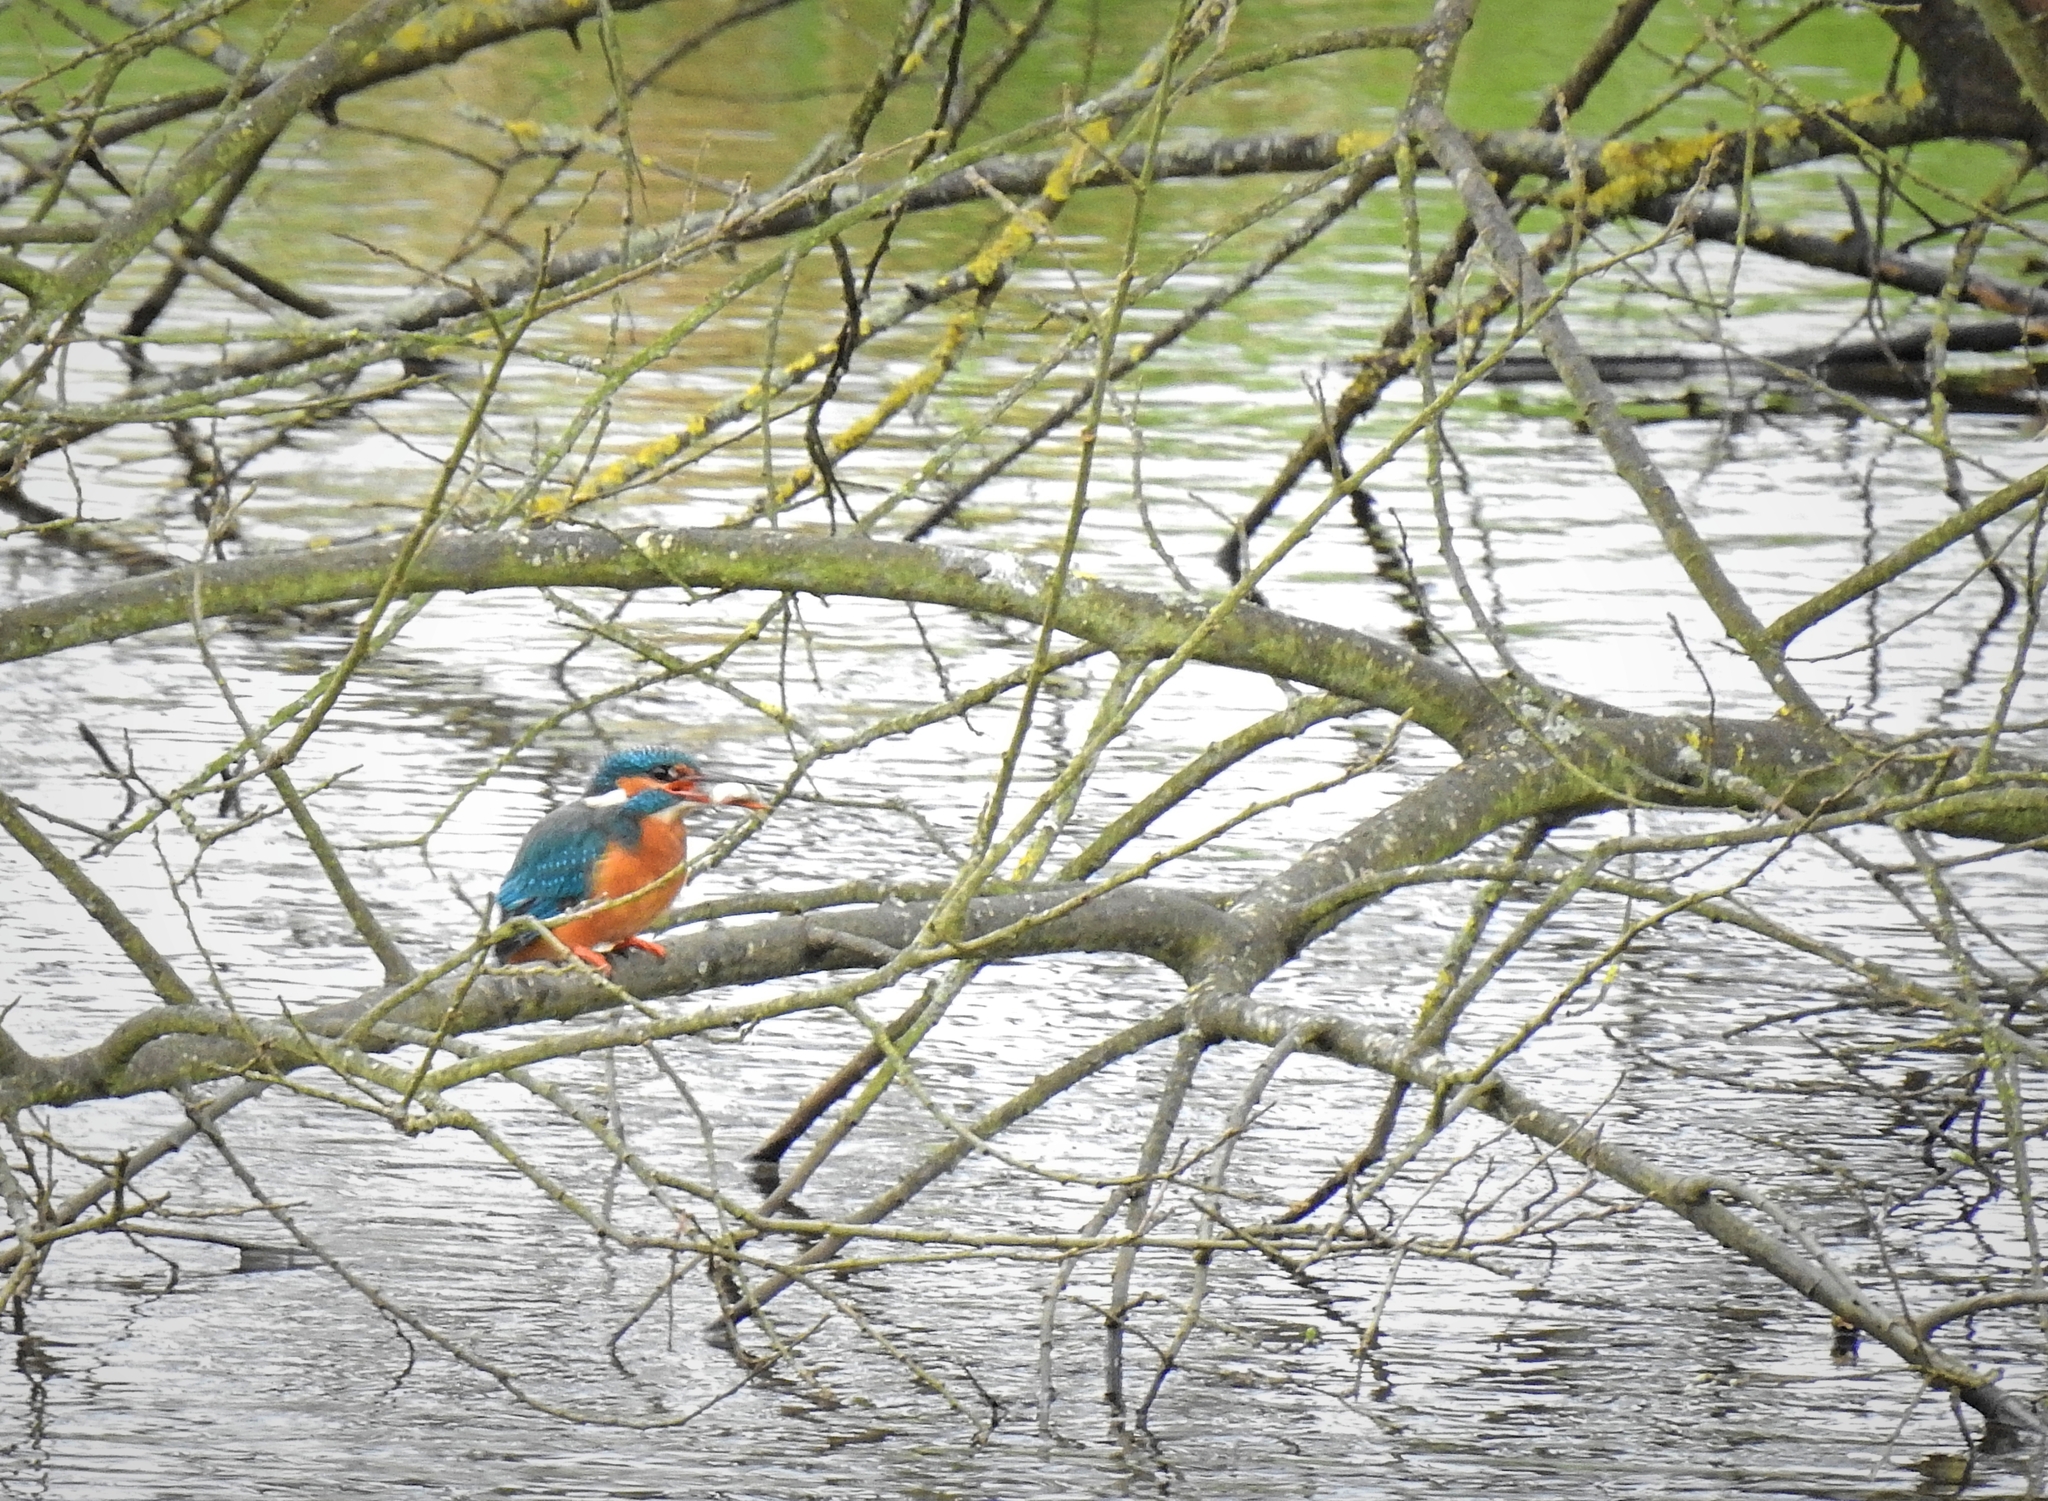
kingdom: Animalia
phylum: Chordata
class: Aves
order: Coraciiformes
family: Alcedinidae
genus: Alcedo
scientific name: Alcedo atthis
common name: Common kingfisher
